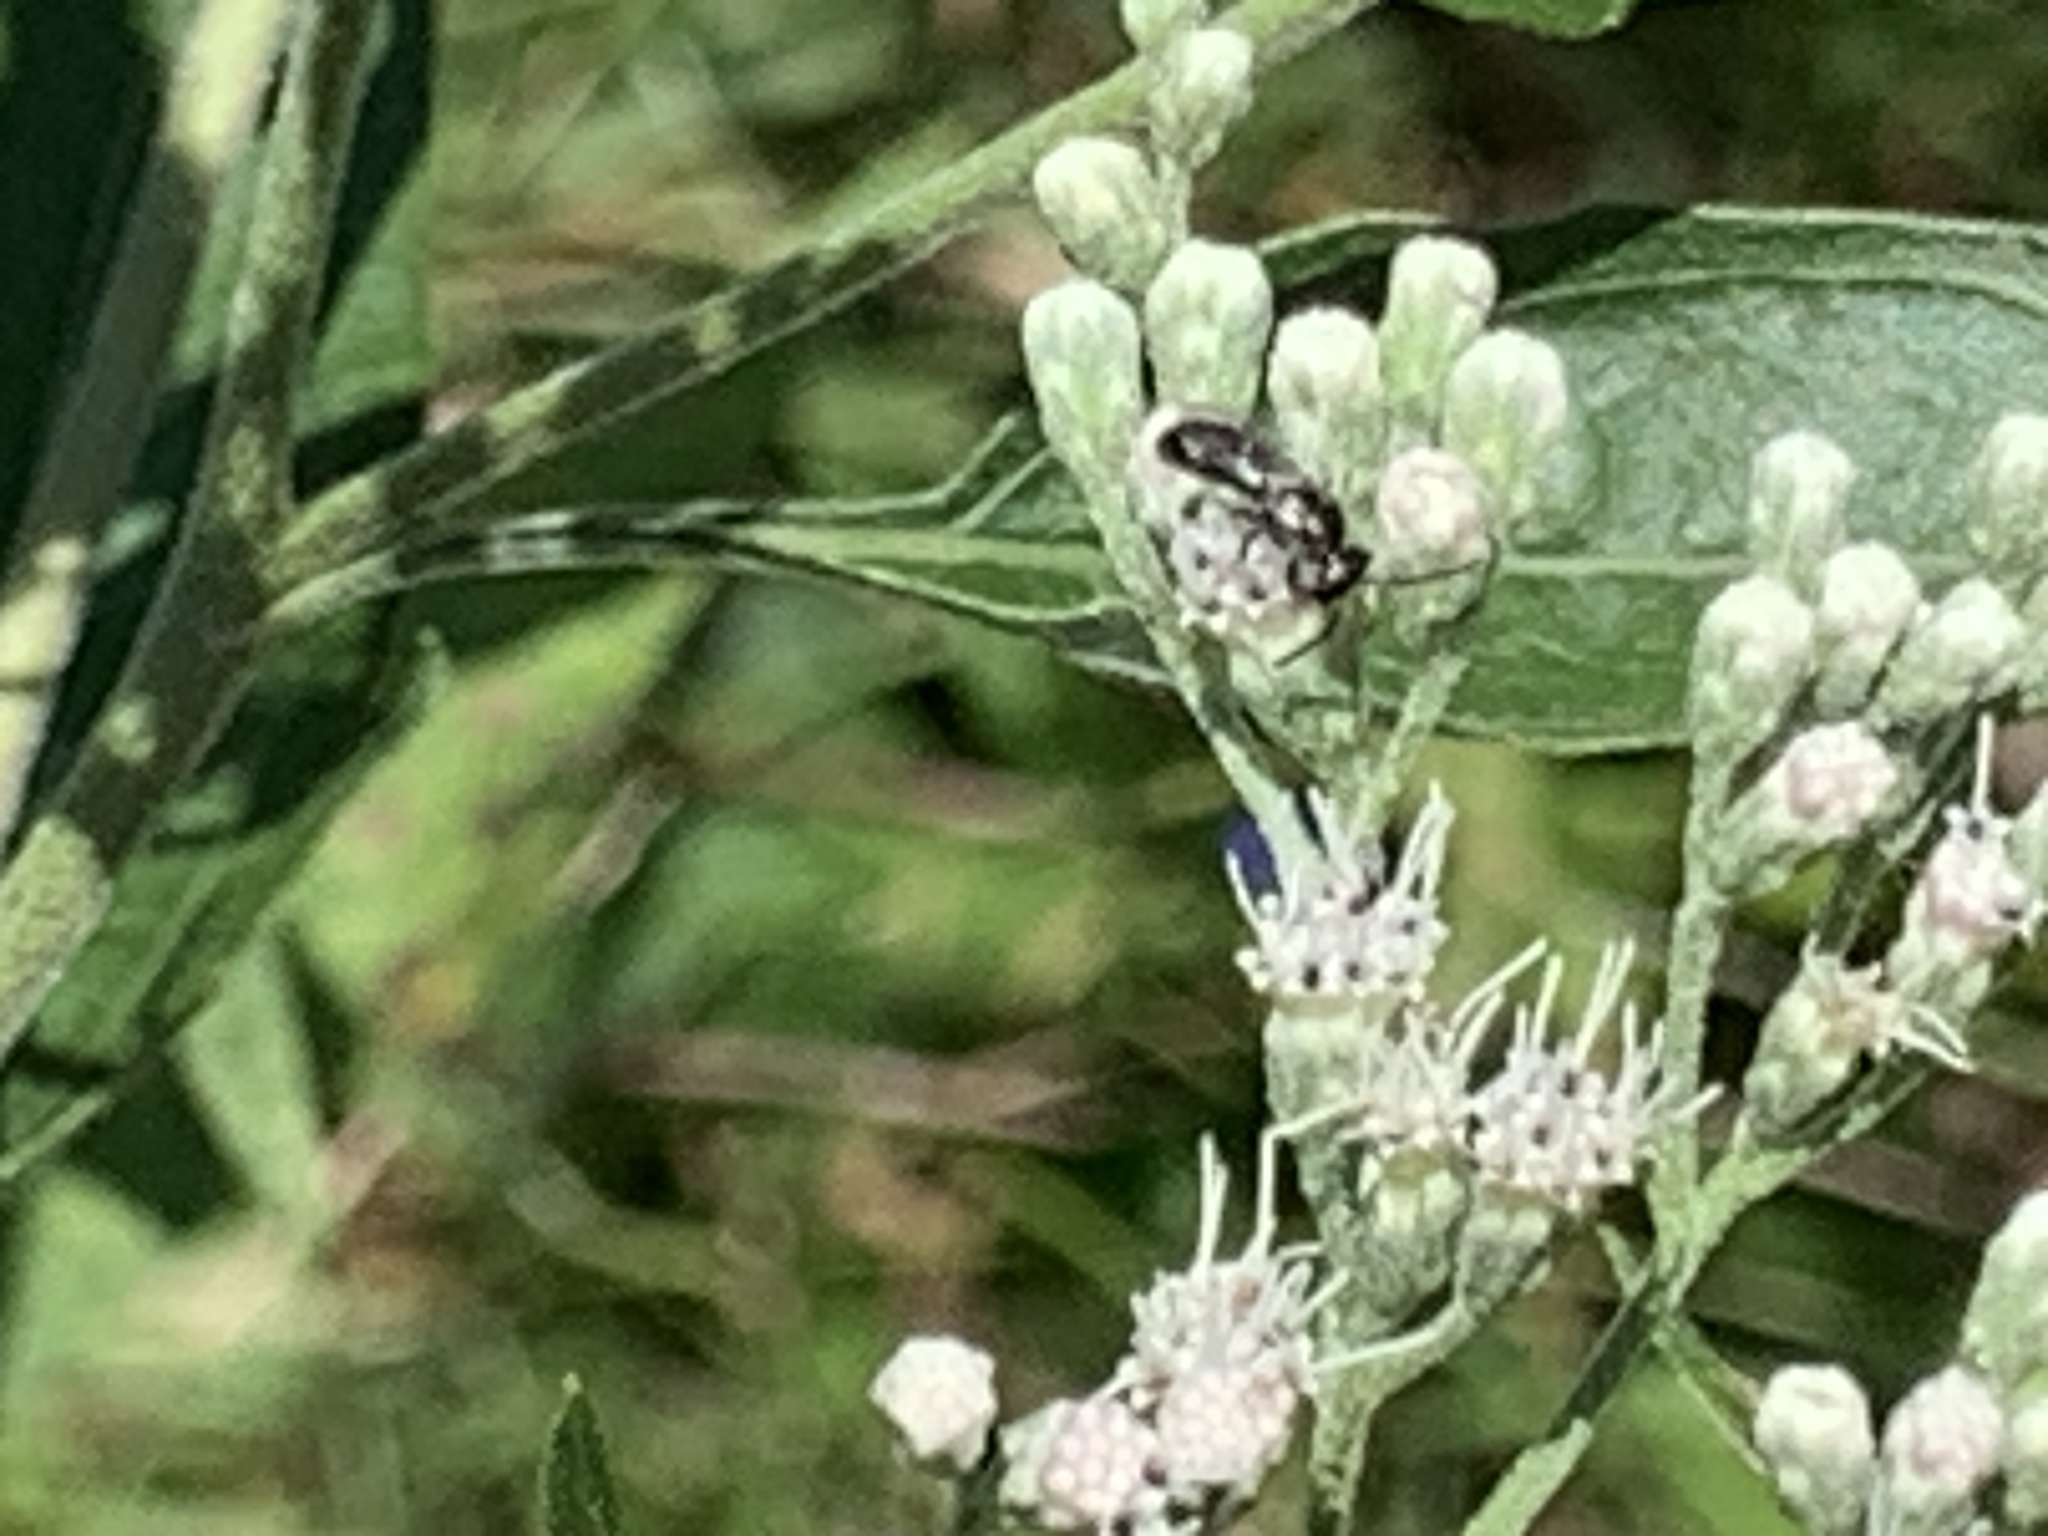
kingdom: Animalia
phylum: Arthropoda
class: Insecta
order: Hymenoptera
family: Halictidae
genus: Dialictus
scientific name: Dialictus
